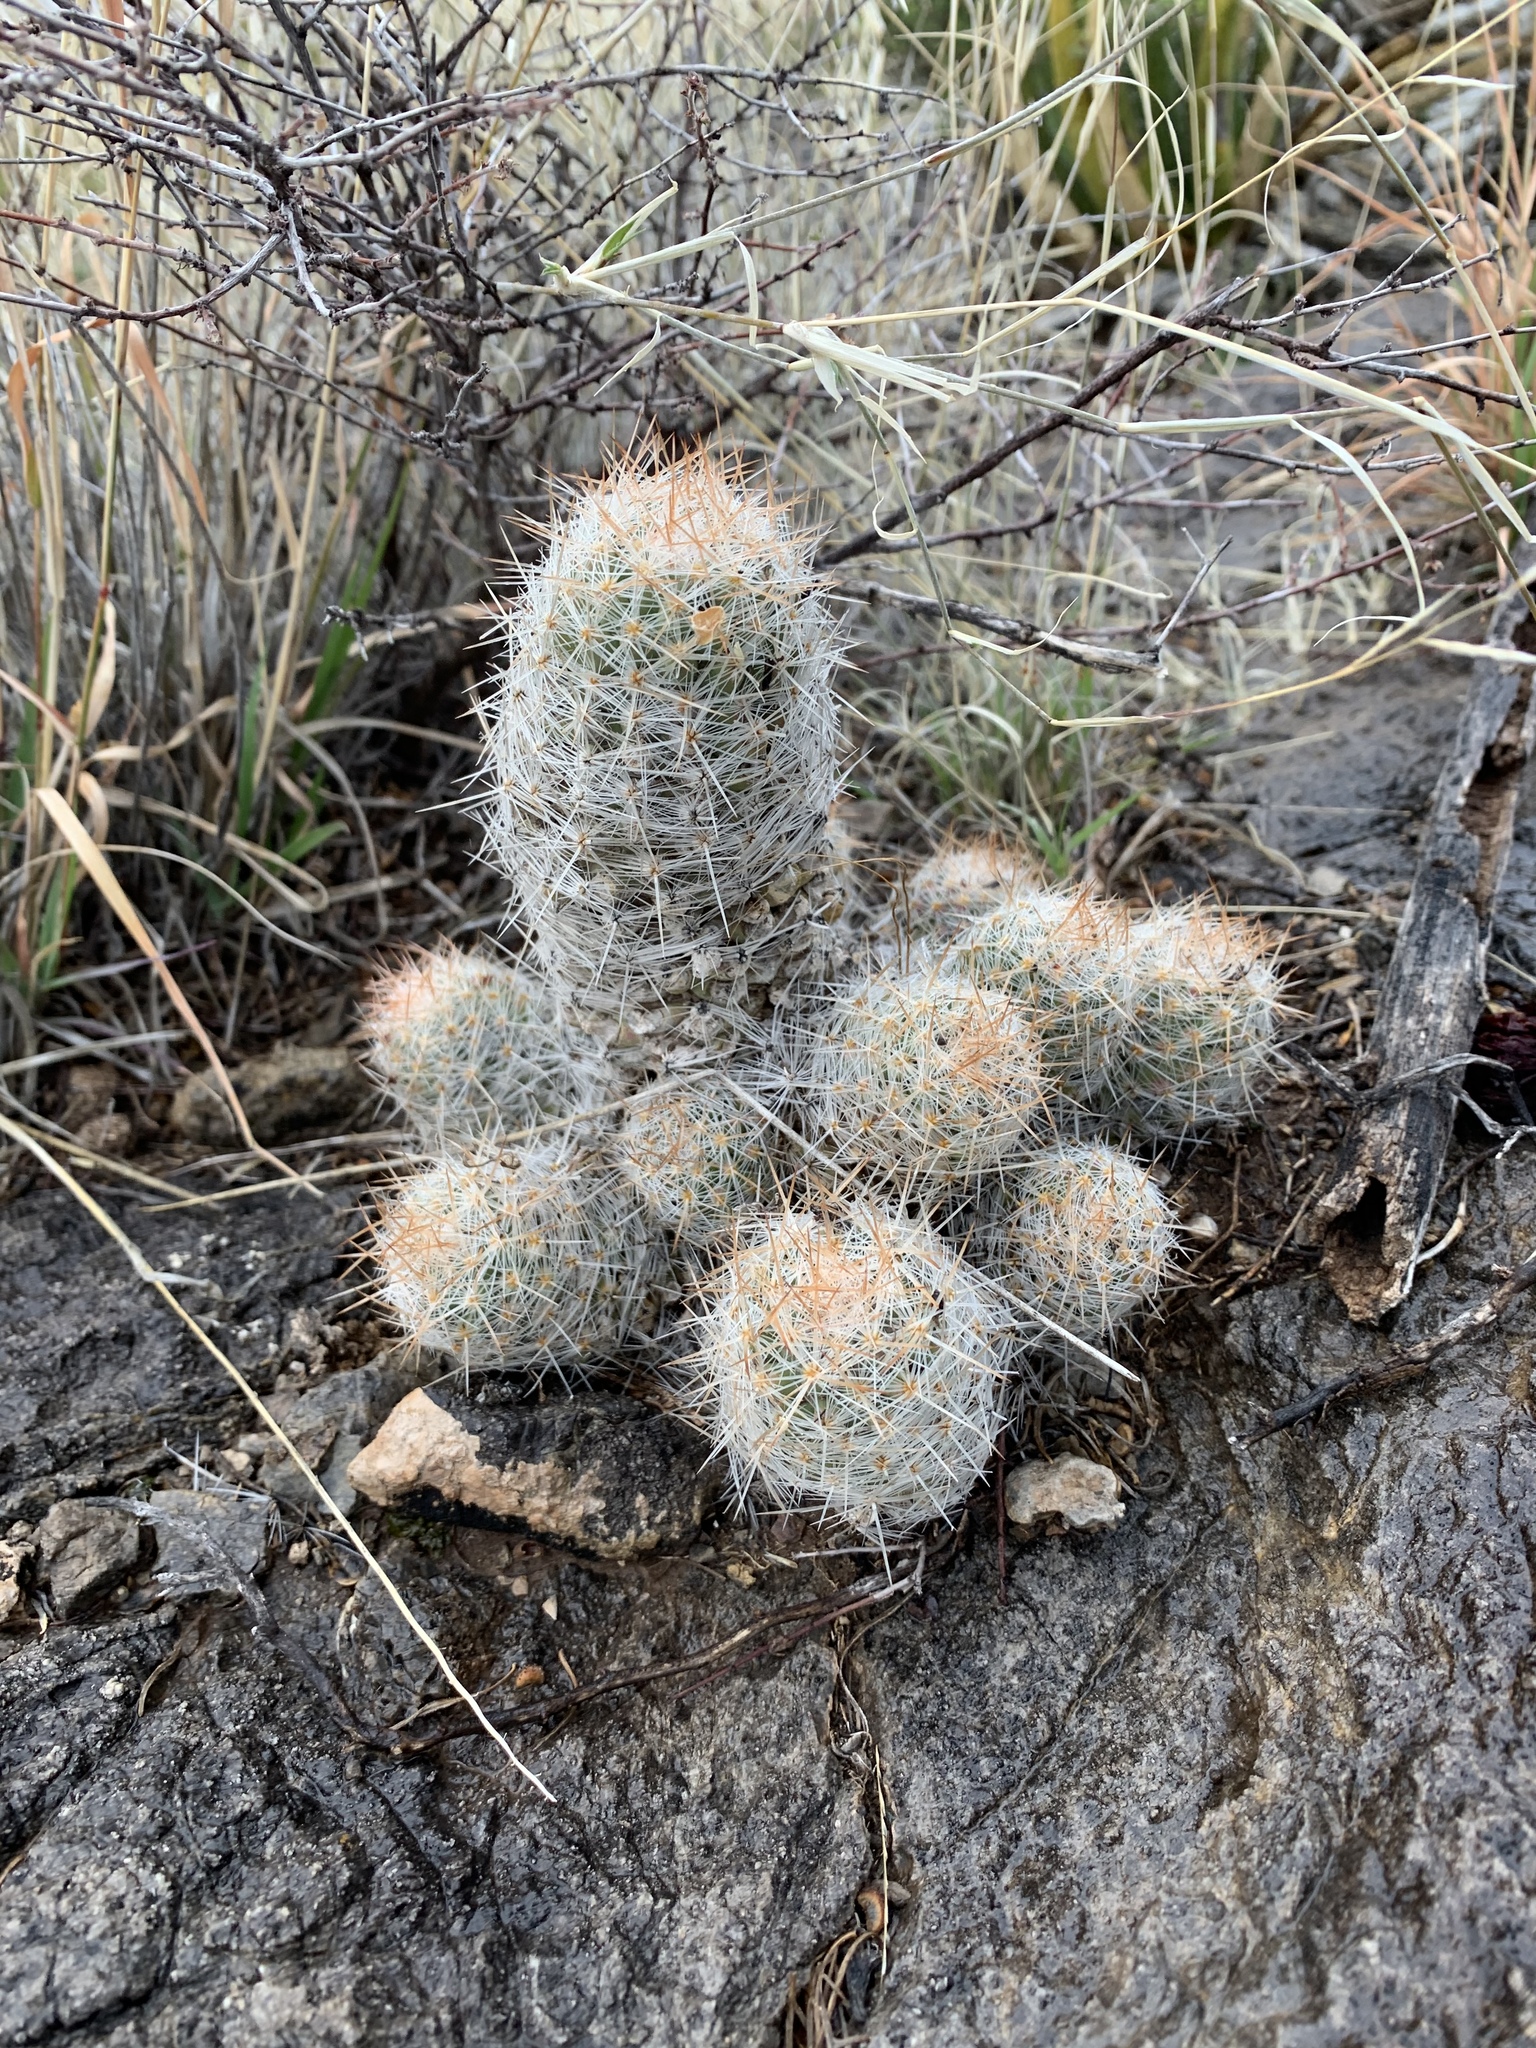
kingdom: Plantae
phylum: Tracheophyta
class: Magnoliopsida
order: Caryophyllales
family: Cactaceae
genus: Pelecyphora
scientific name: Pelecyphora tuberculosa
